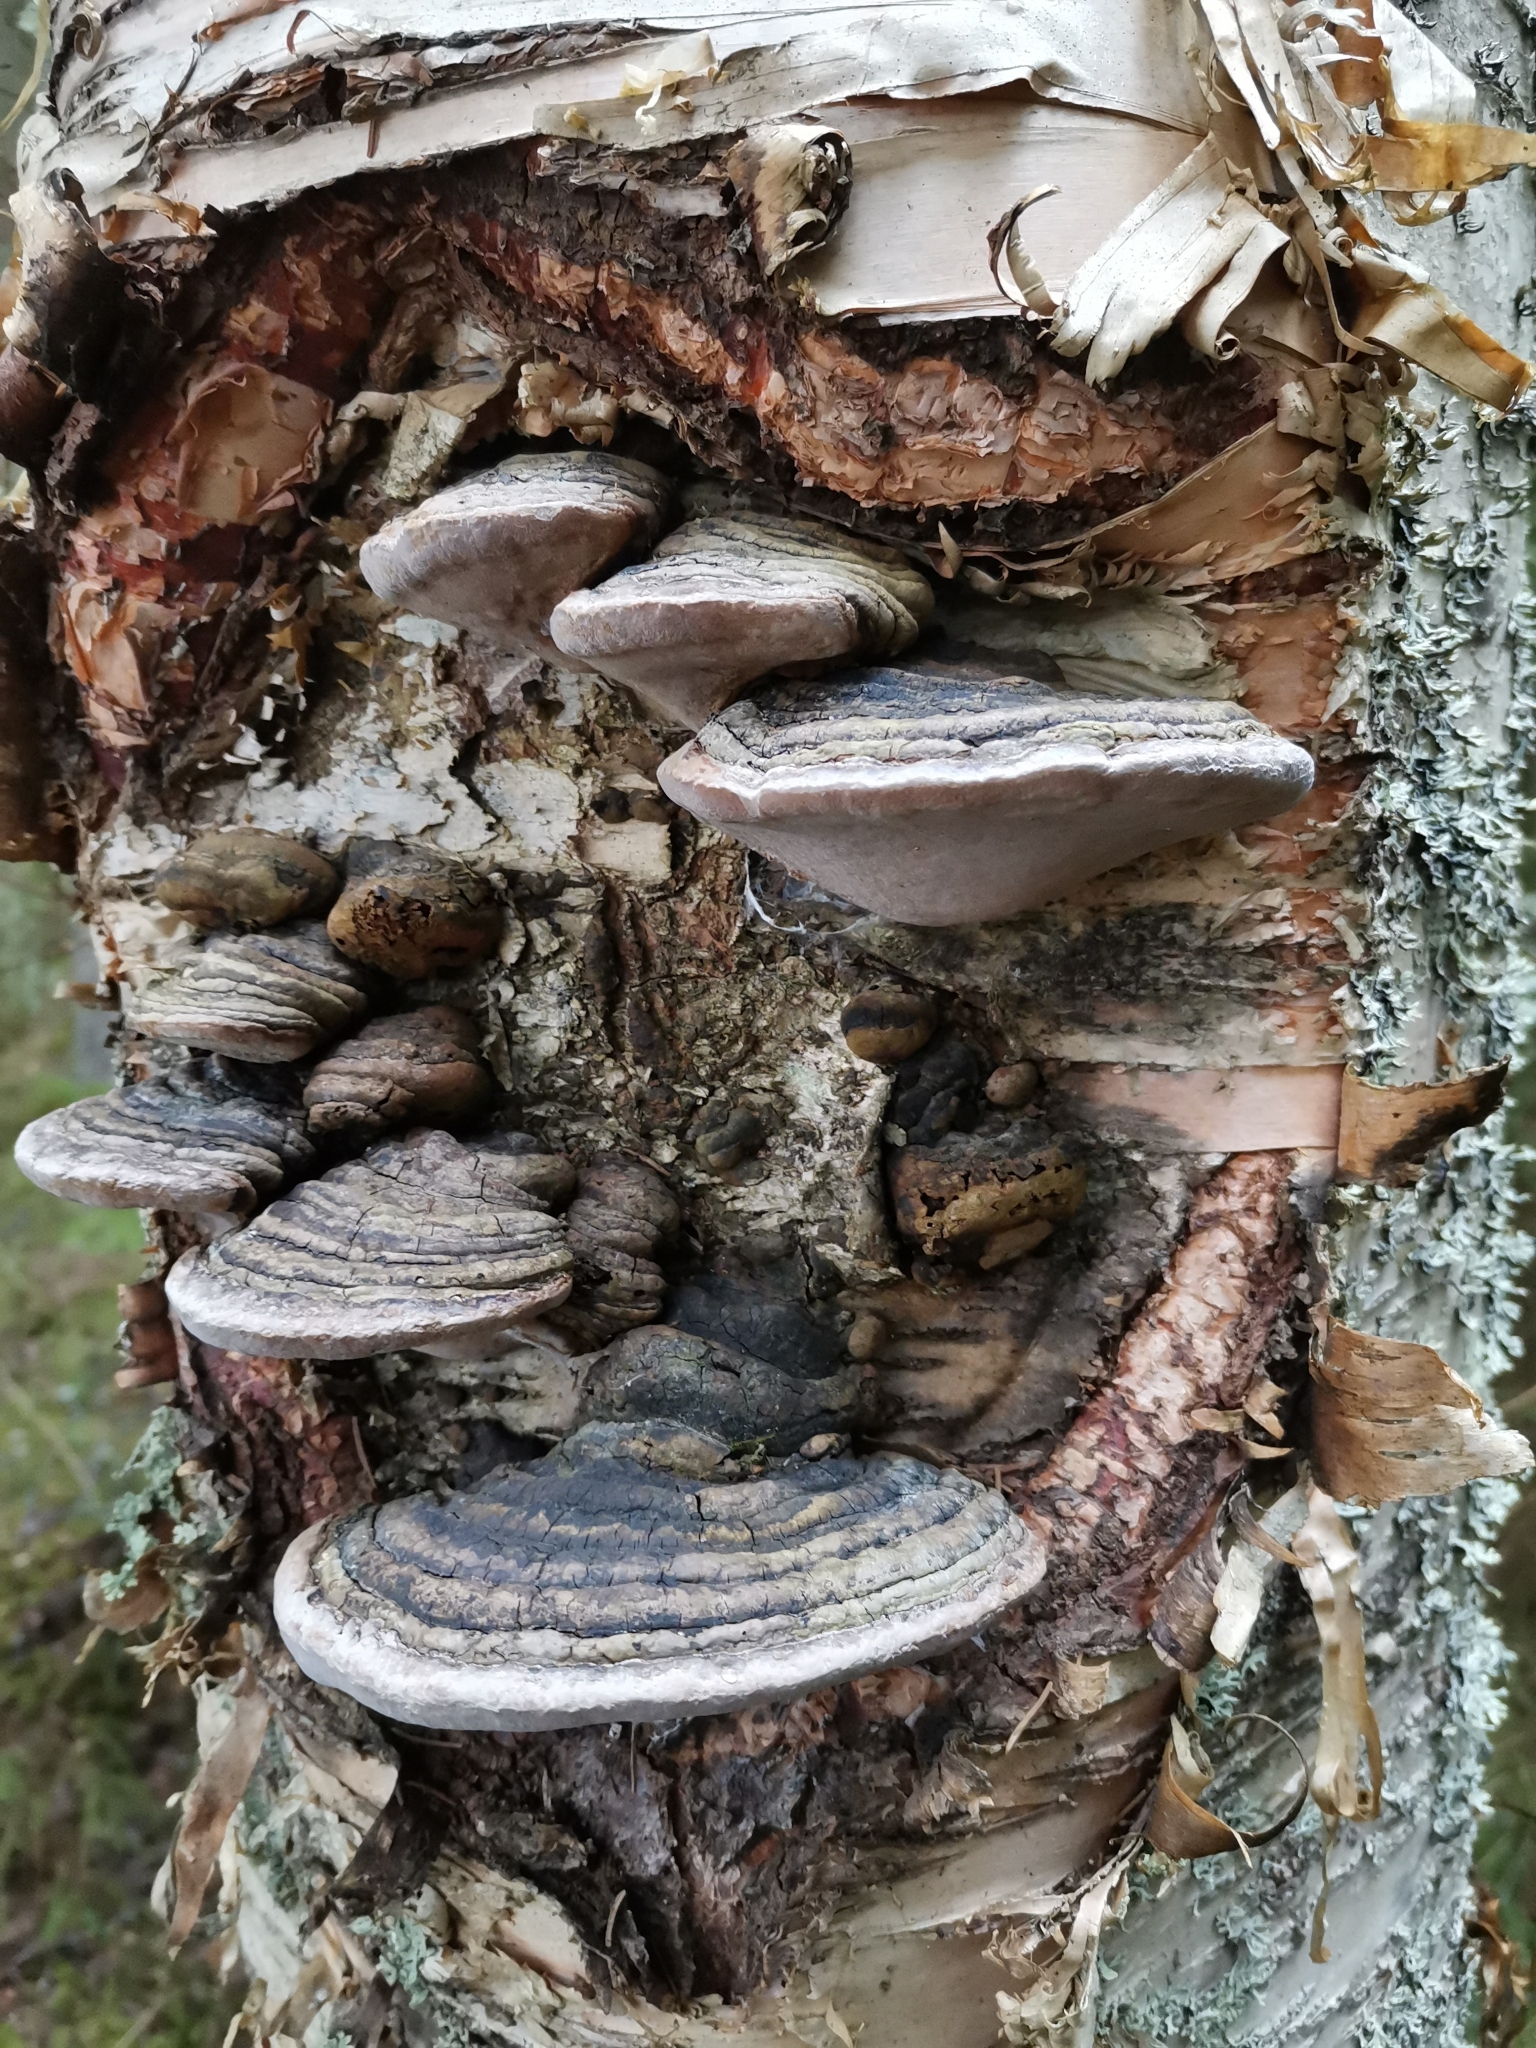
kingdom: Fungi
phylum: Basidiomycota
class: Agaricomycetes
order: Hymenochaetales
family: Hymenochaetaceae
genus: Phellinus
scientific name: Phellinus igniarius
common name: Willow bracket
